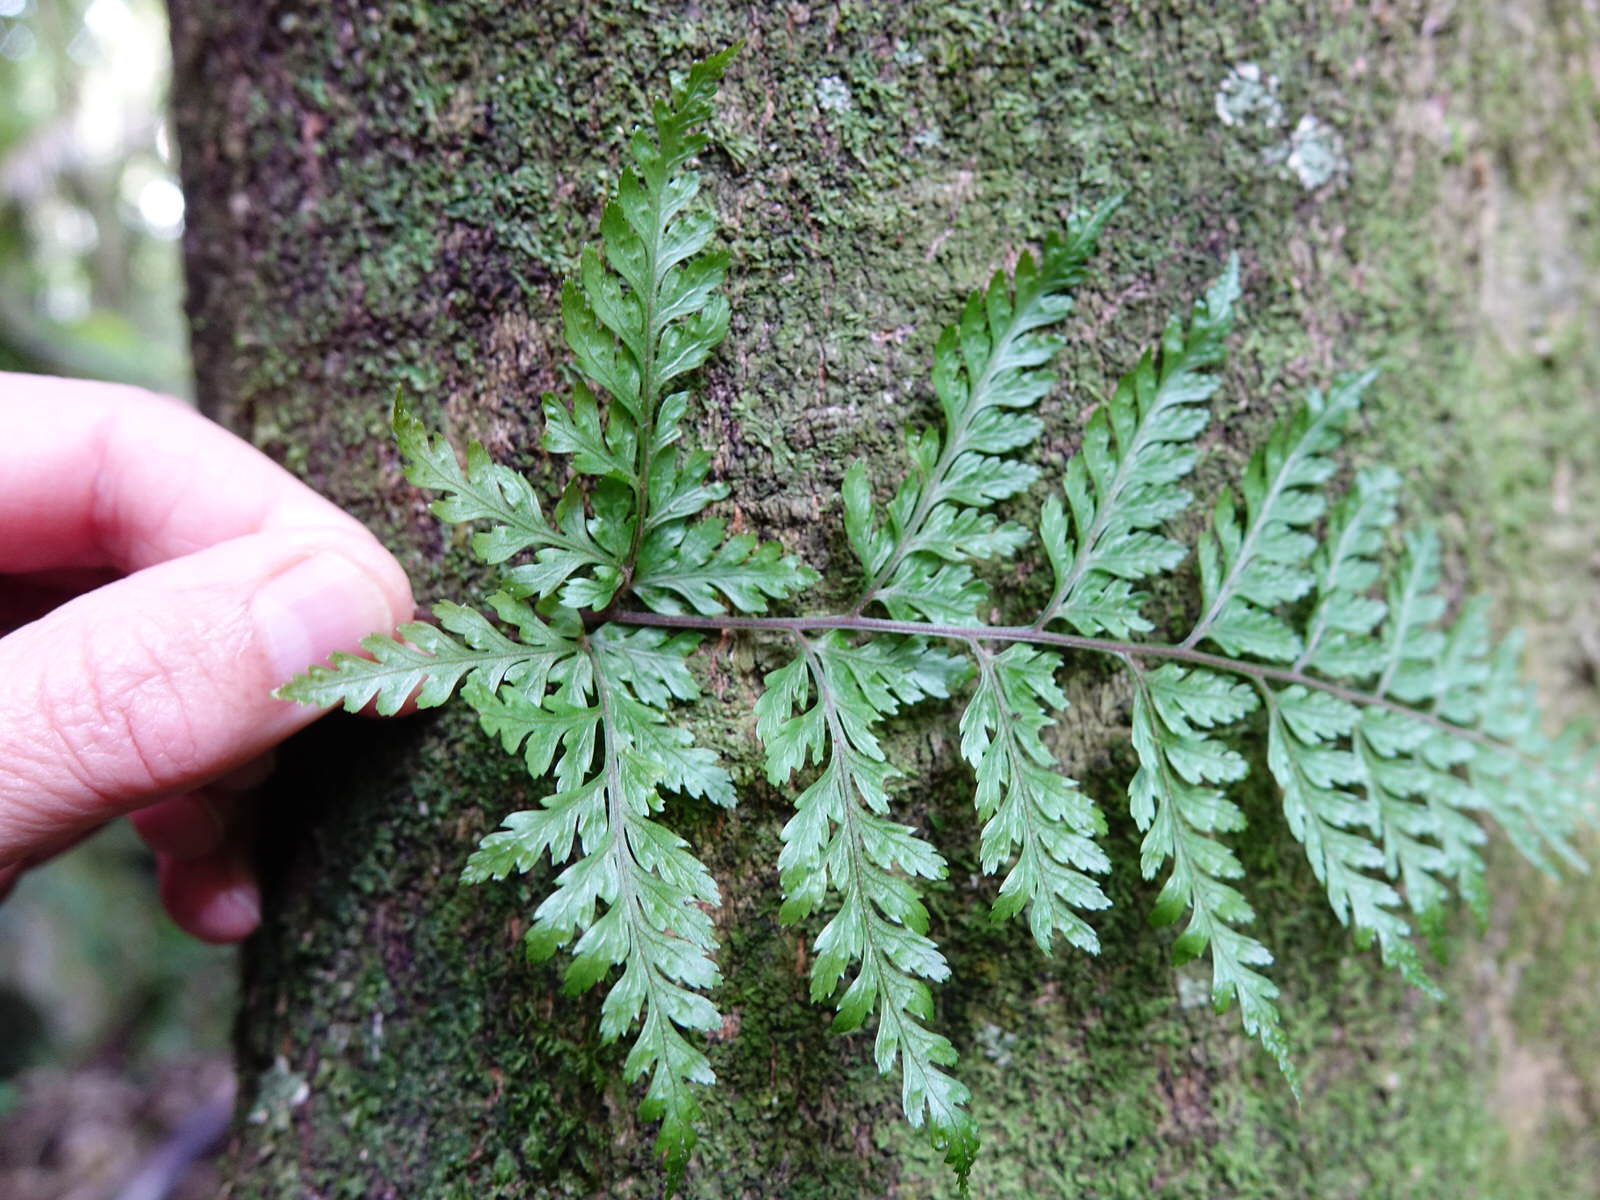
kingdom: Plantae
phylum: Tracheophyta
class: Polypodiopsida
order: Polypodiales
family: Dryopteridaceae
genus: Parapolystichum
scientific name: Parapolystichum glabellum
